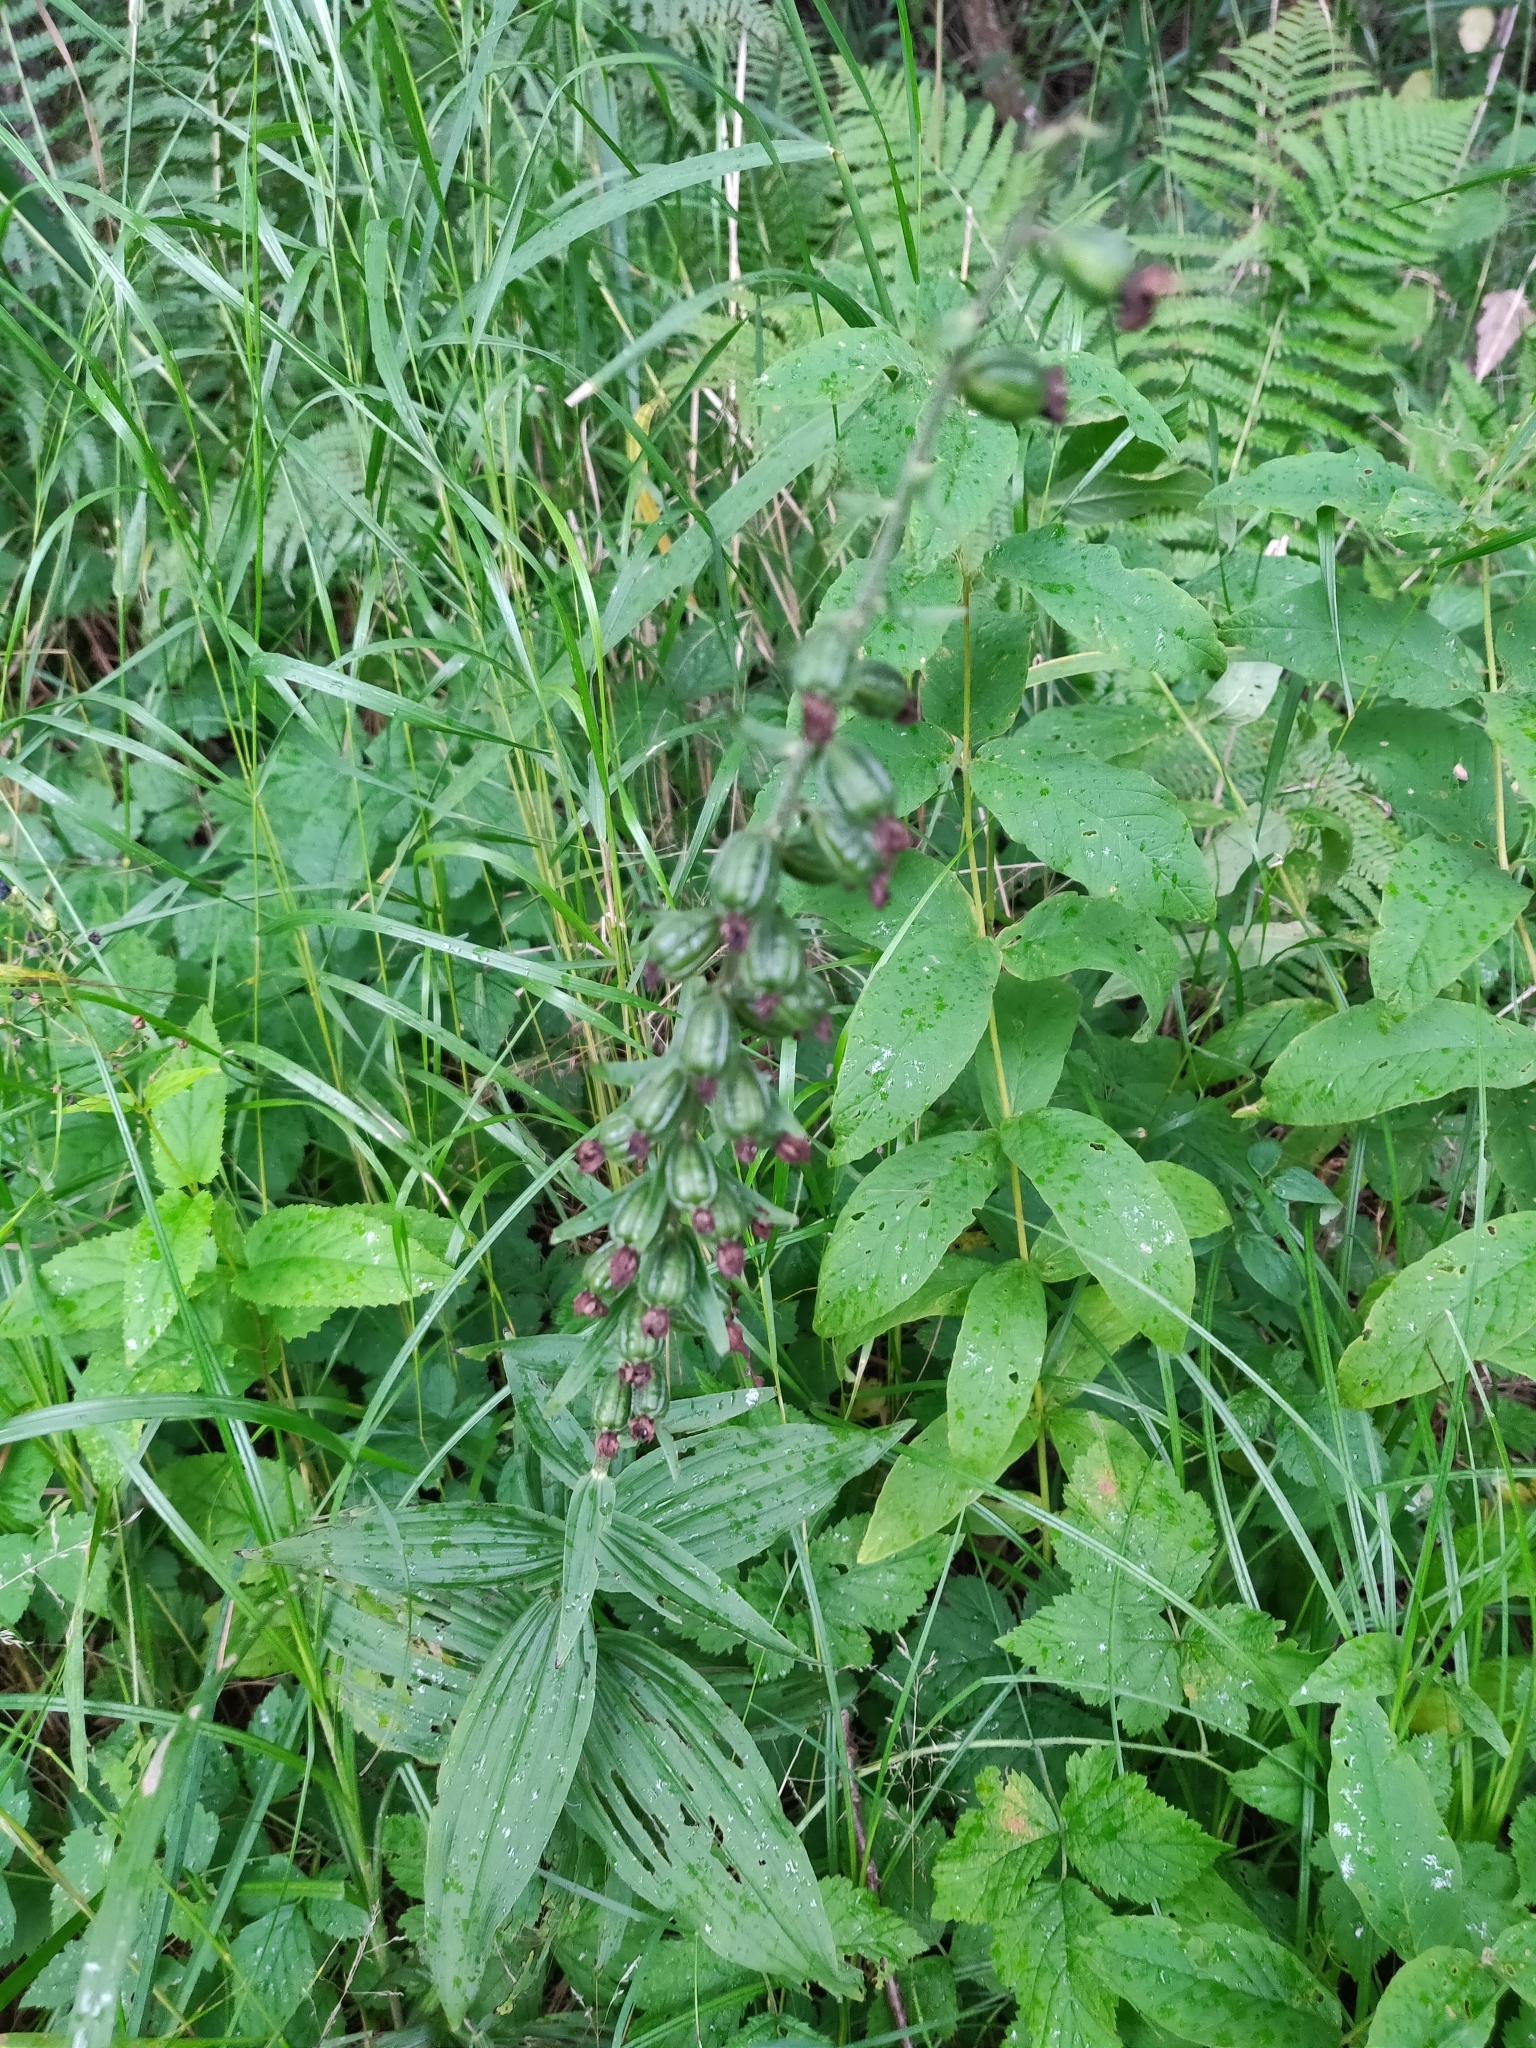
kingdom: Plantae
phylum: Tracheophyta
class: Liliopsida
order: Asparagales
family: Orchidaceae
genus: Epipactis
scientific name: Epipactis helleborine
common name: Broad-leaved helleborine
